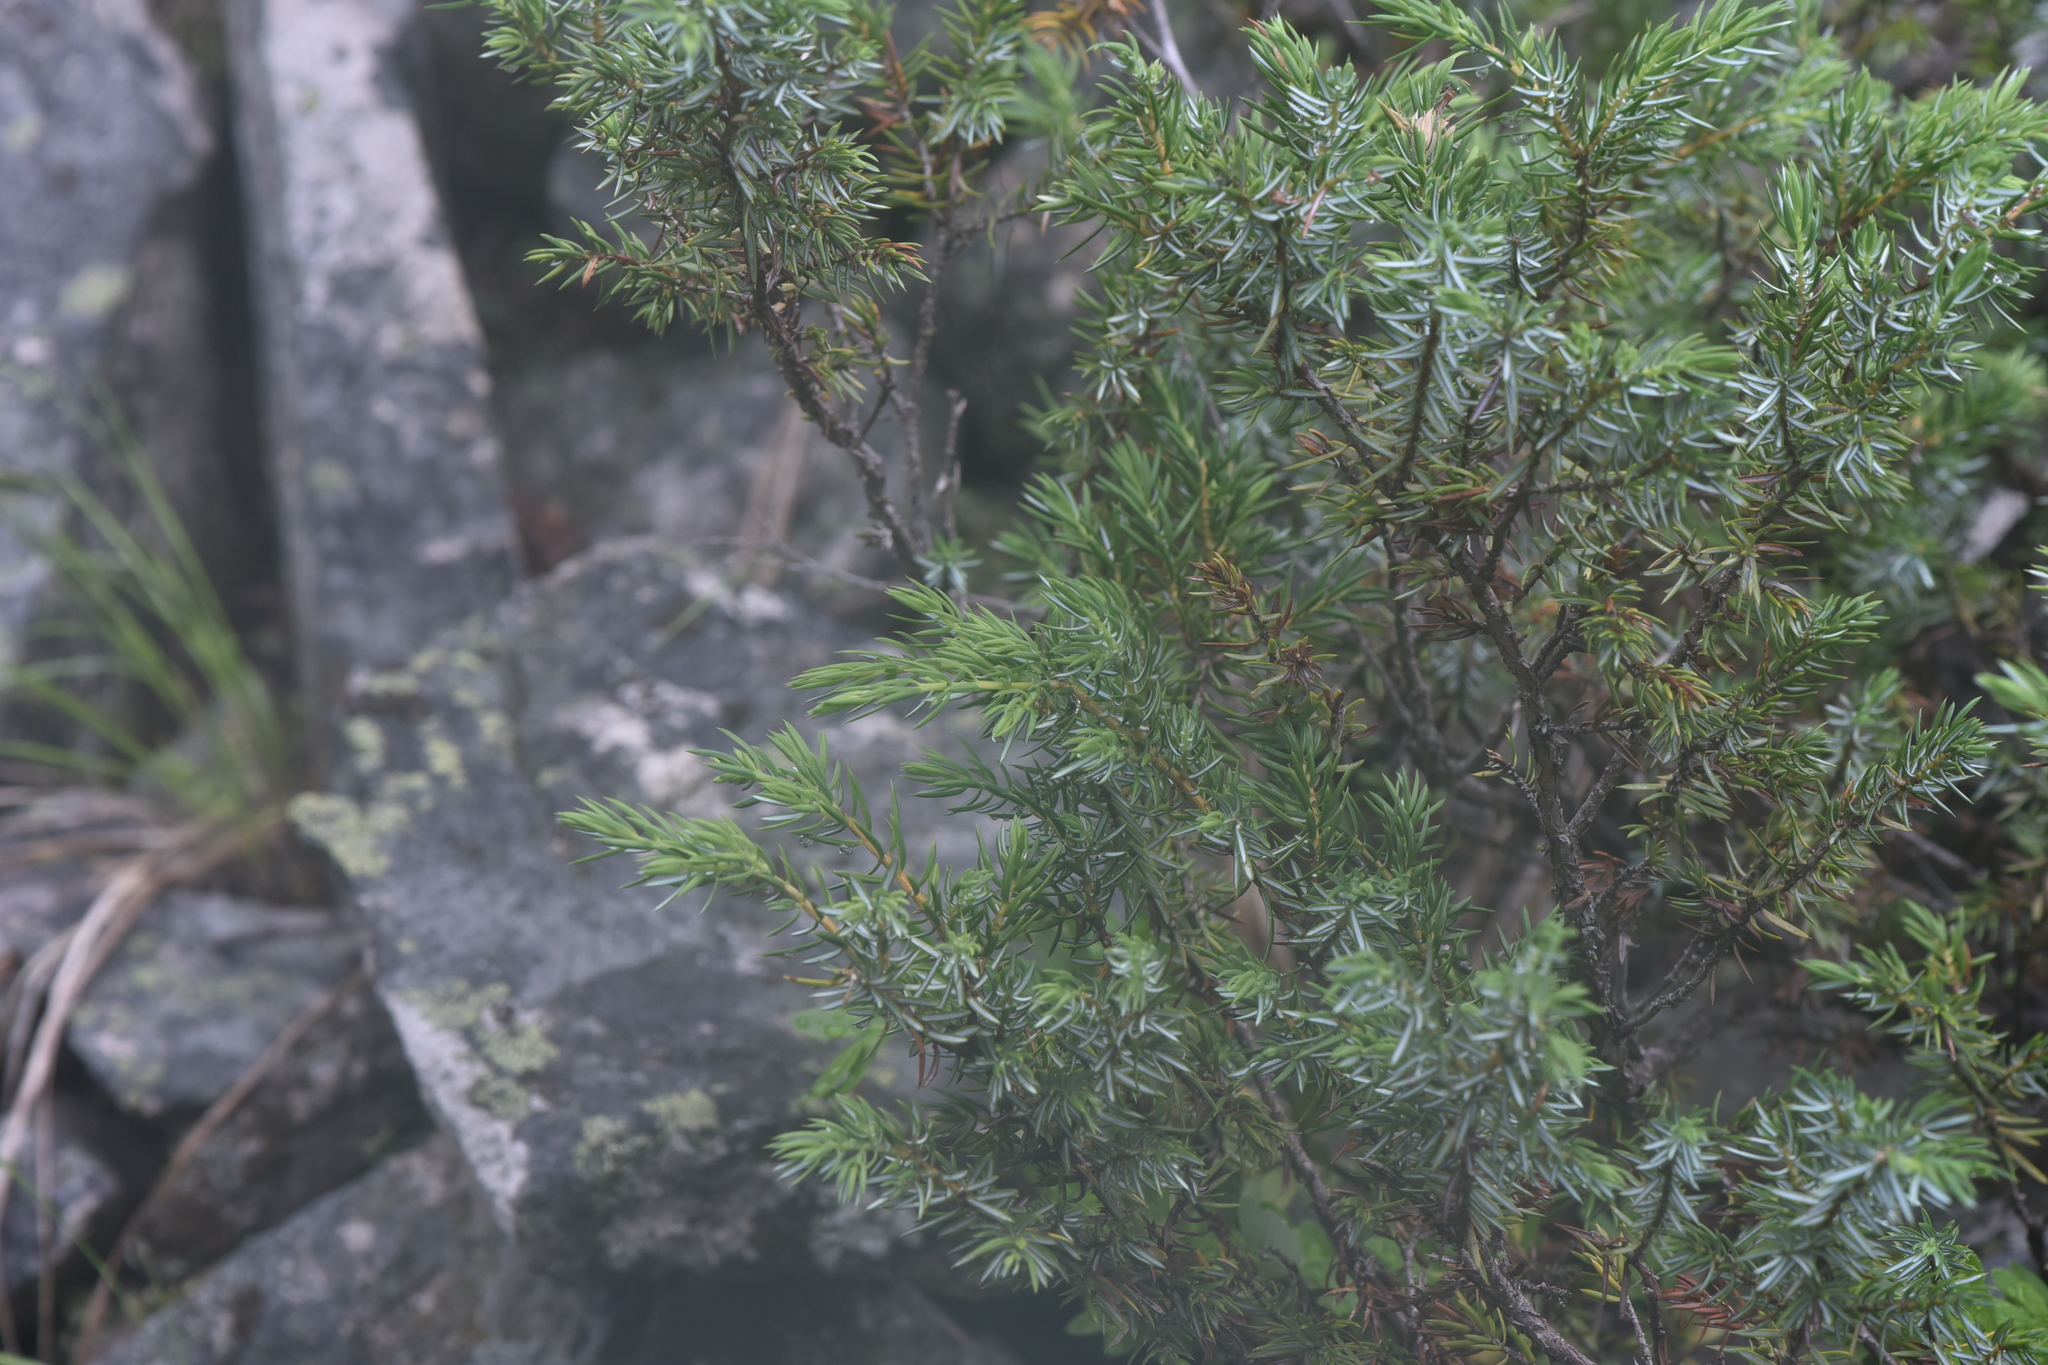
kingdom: Plantae
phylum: Tracheophyta
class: Pinopsida
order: Pinales
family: Cupressaceae
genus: Juniperus
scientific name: Juniperus communis
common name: Common juniper
